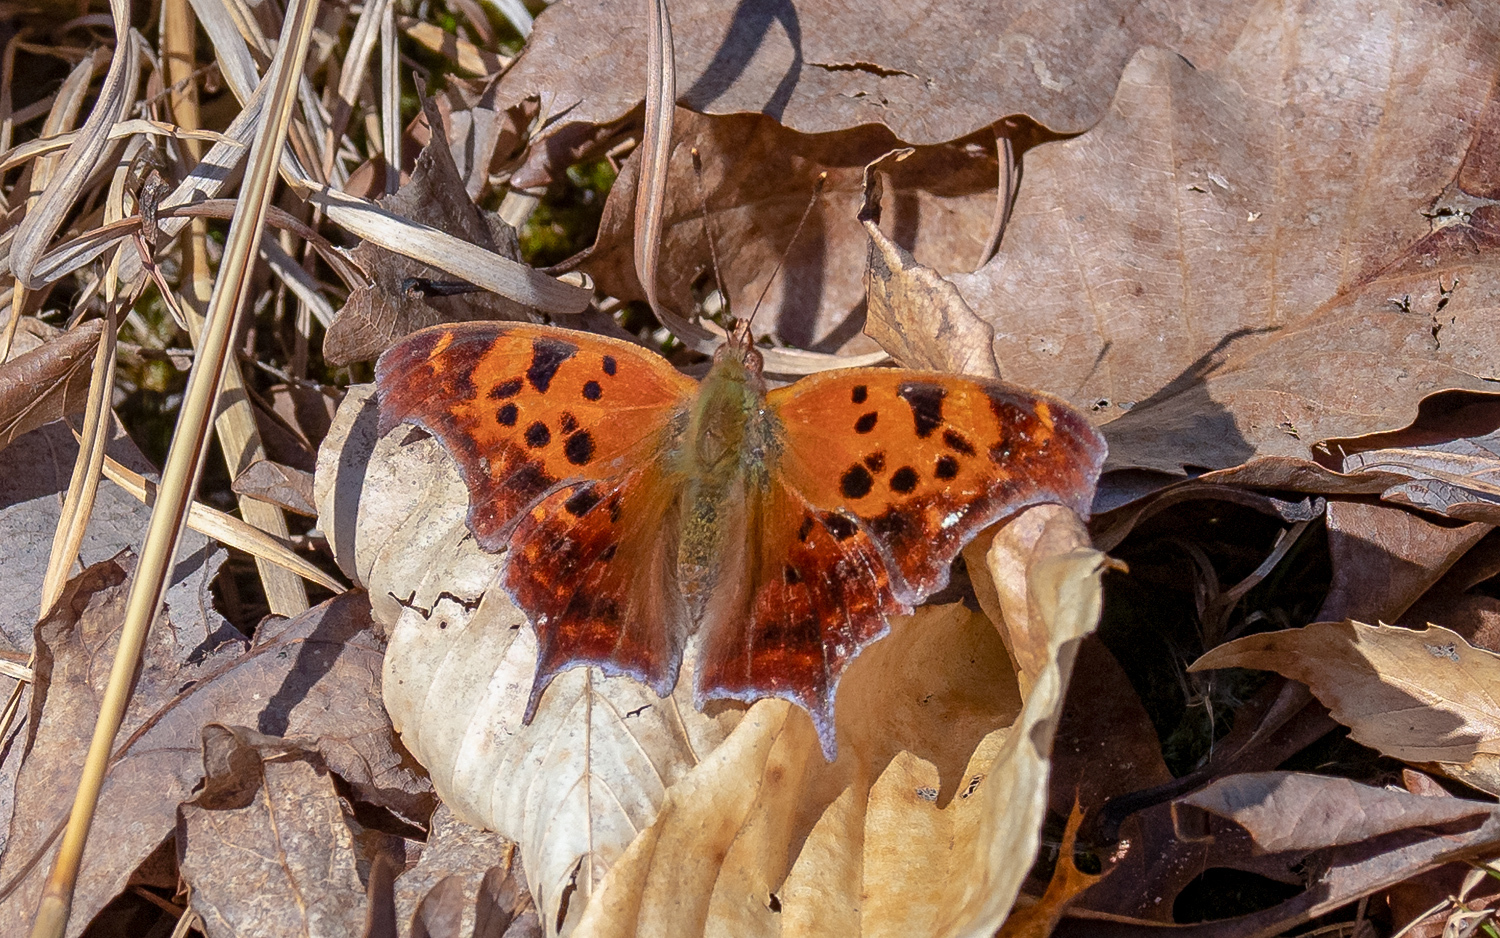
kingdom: Animalia
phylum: Arthropoda
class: Insecta
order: Lepidoptera
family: Nymphalidae
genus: Polygonia
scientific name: Polygonia interrogationis
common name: Question mark
